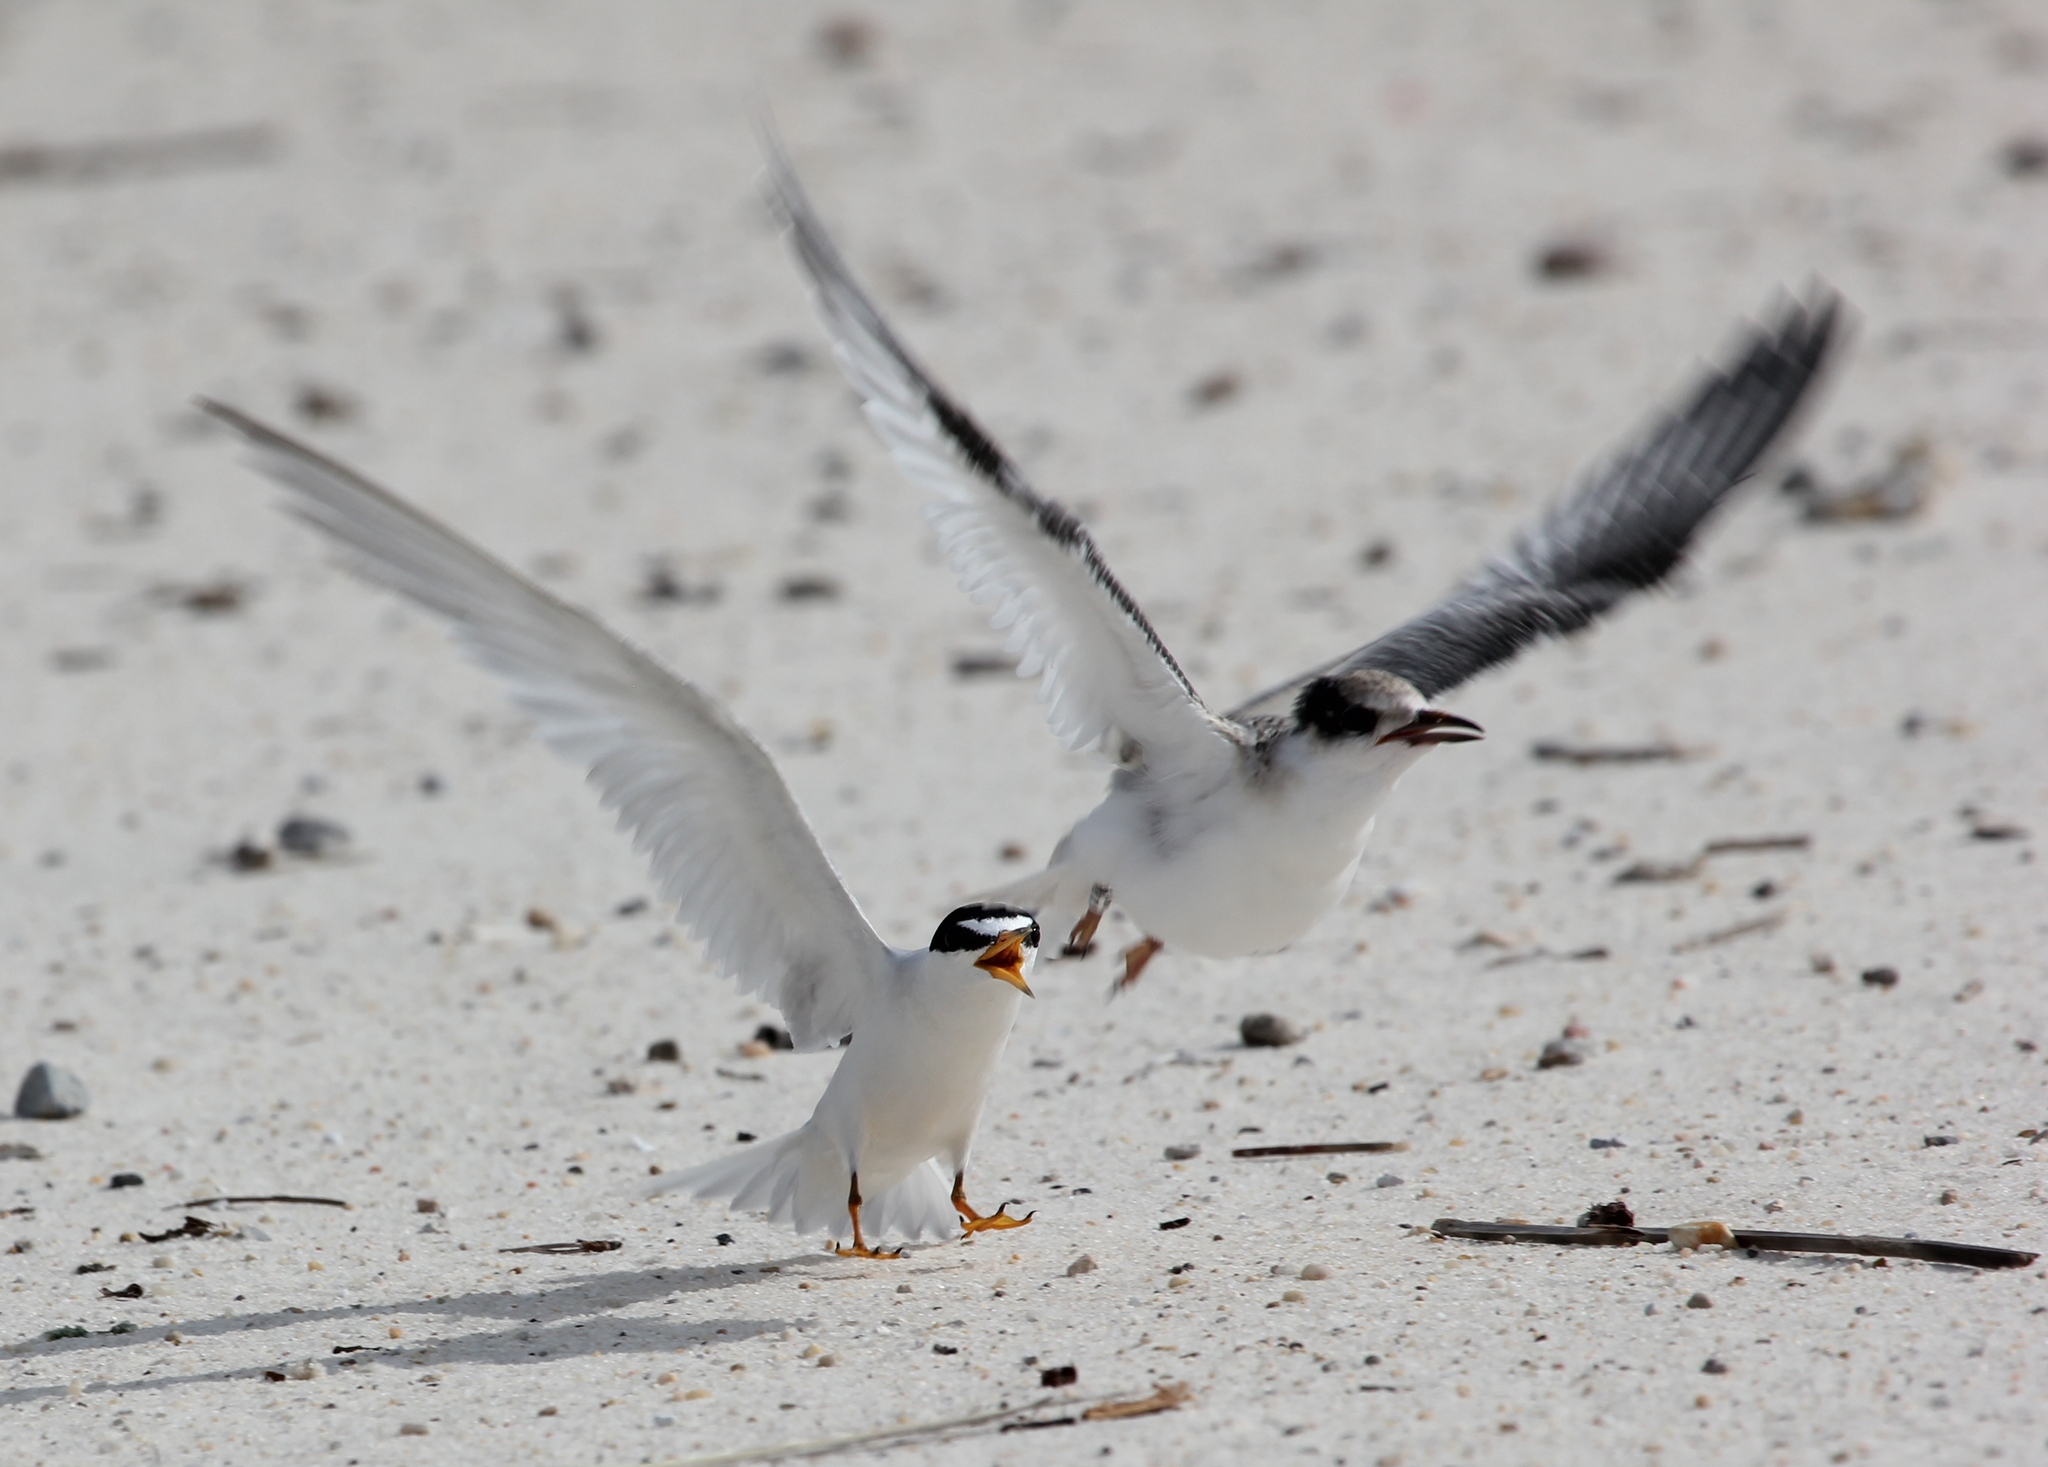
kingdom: Animalia
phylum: Chordata
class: Aves
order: Charadriiformes
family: Laridae
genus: Sternula
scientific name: Sternula antillarum
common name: Least tern
